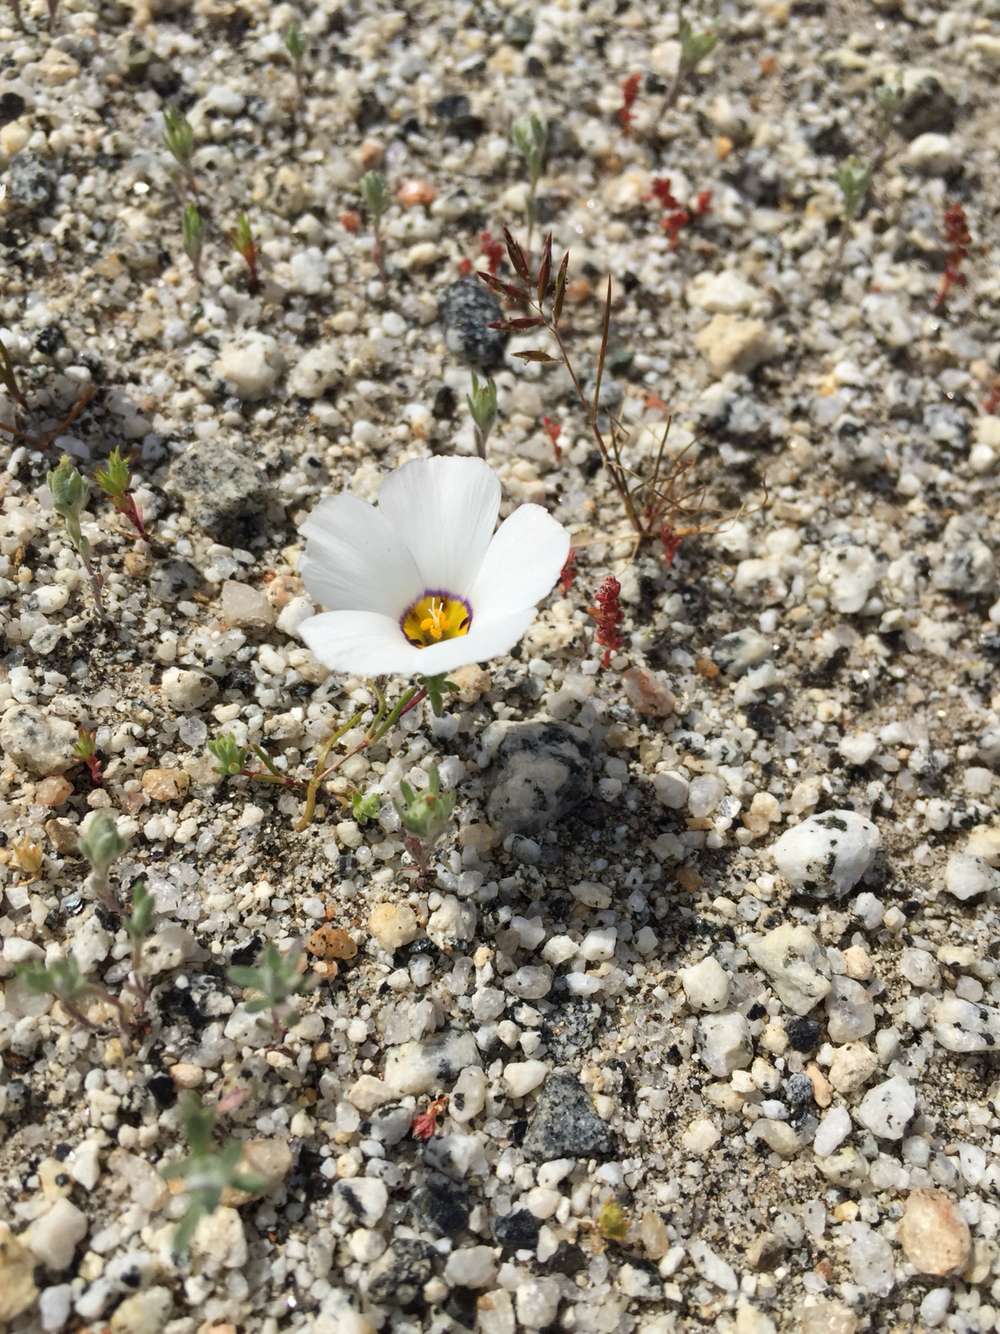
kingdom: Plantae
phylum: Tracheophyta
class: Magnoliopsida
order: Ericales
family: Polemoniaceae
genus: Linanthus
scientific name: Linanthus dianthiflorus
